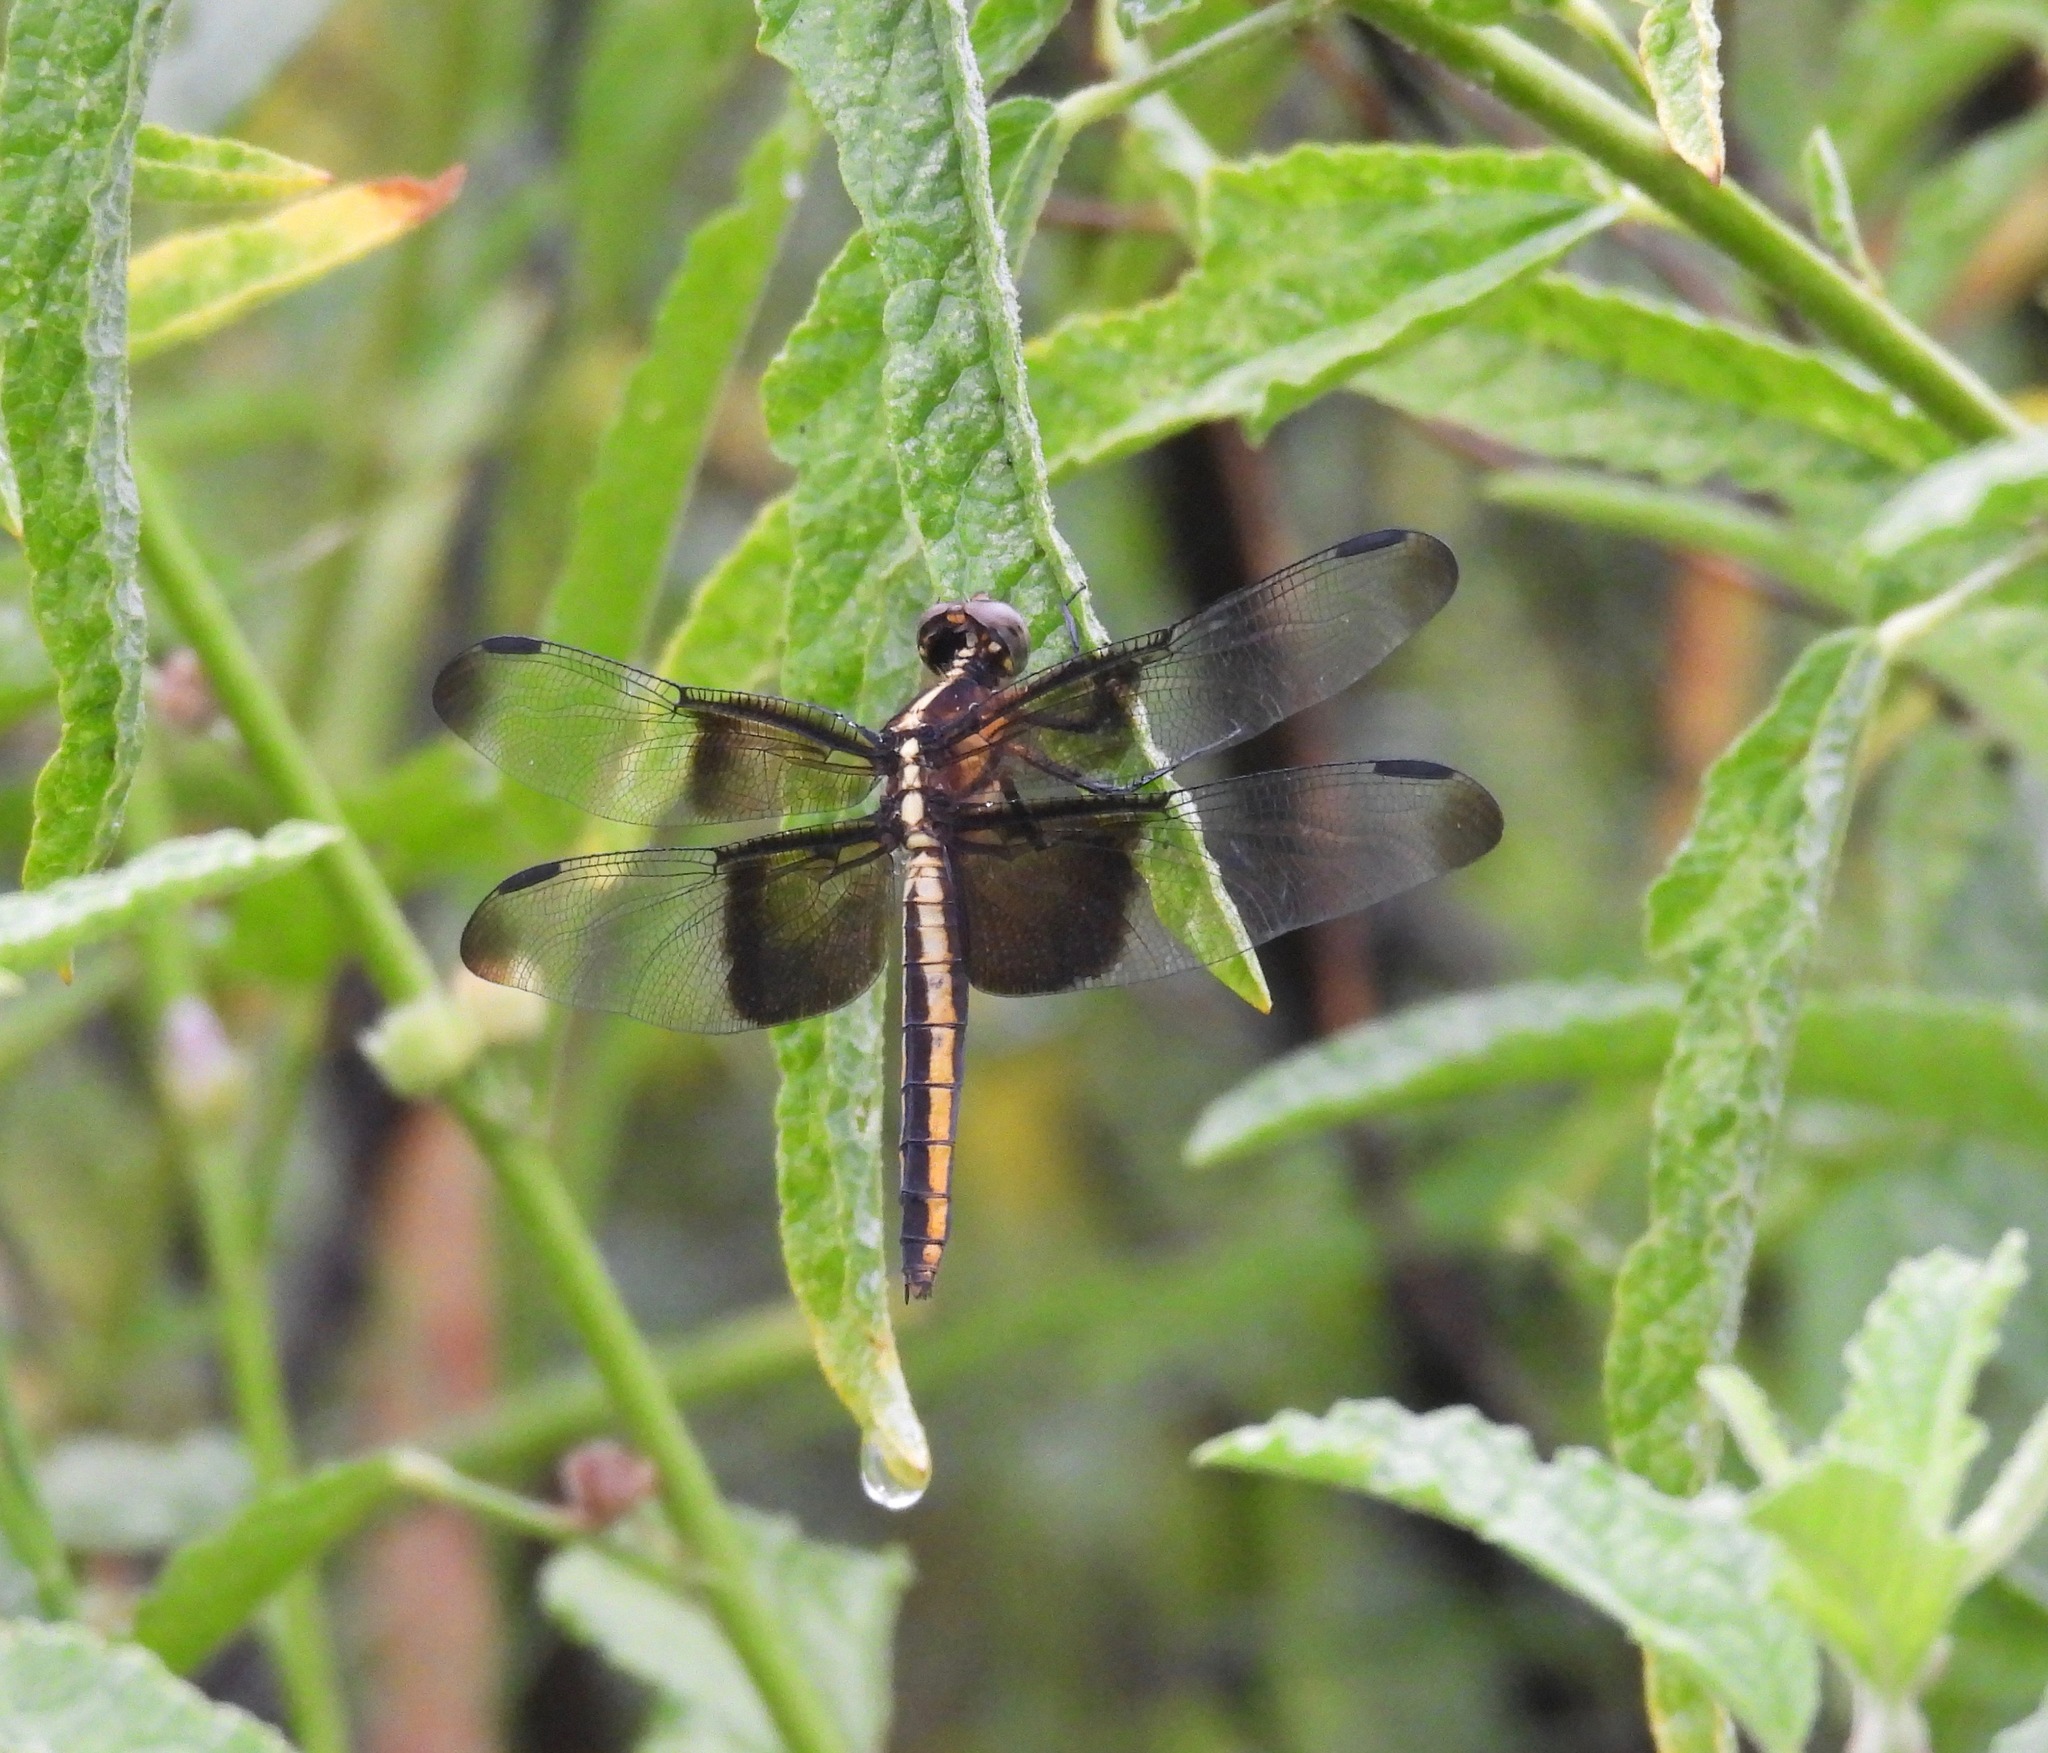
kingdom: Animalia
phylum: Arthropoda
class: Insecta
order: Odonata
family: Libellulidae
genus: Libellula
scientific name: Libellula luctuosa
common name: Widow skimmer
